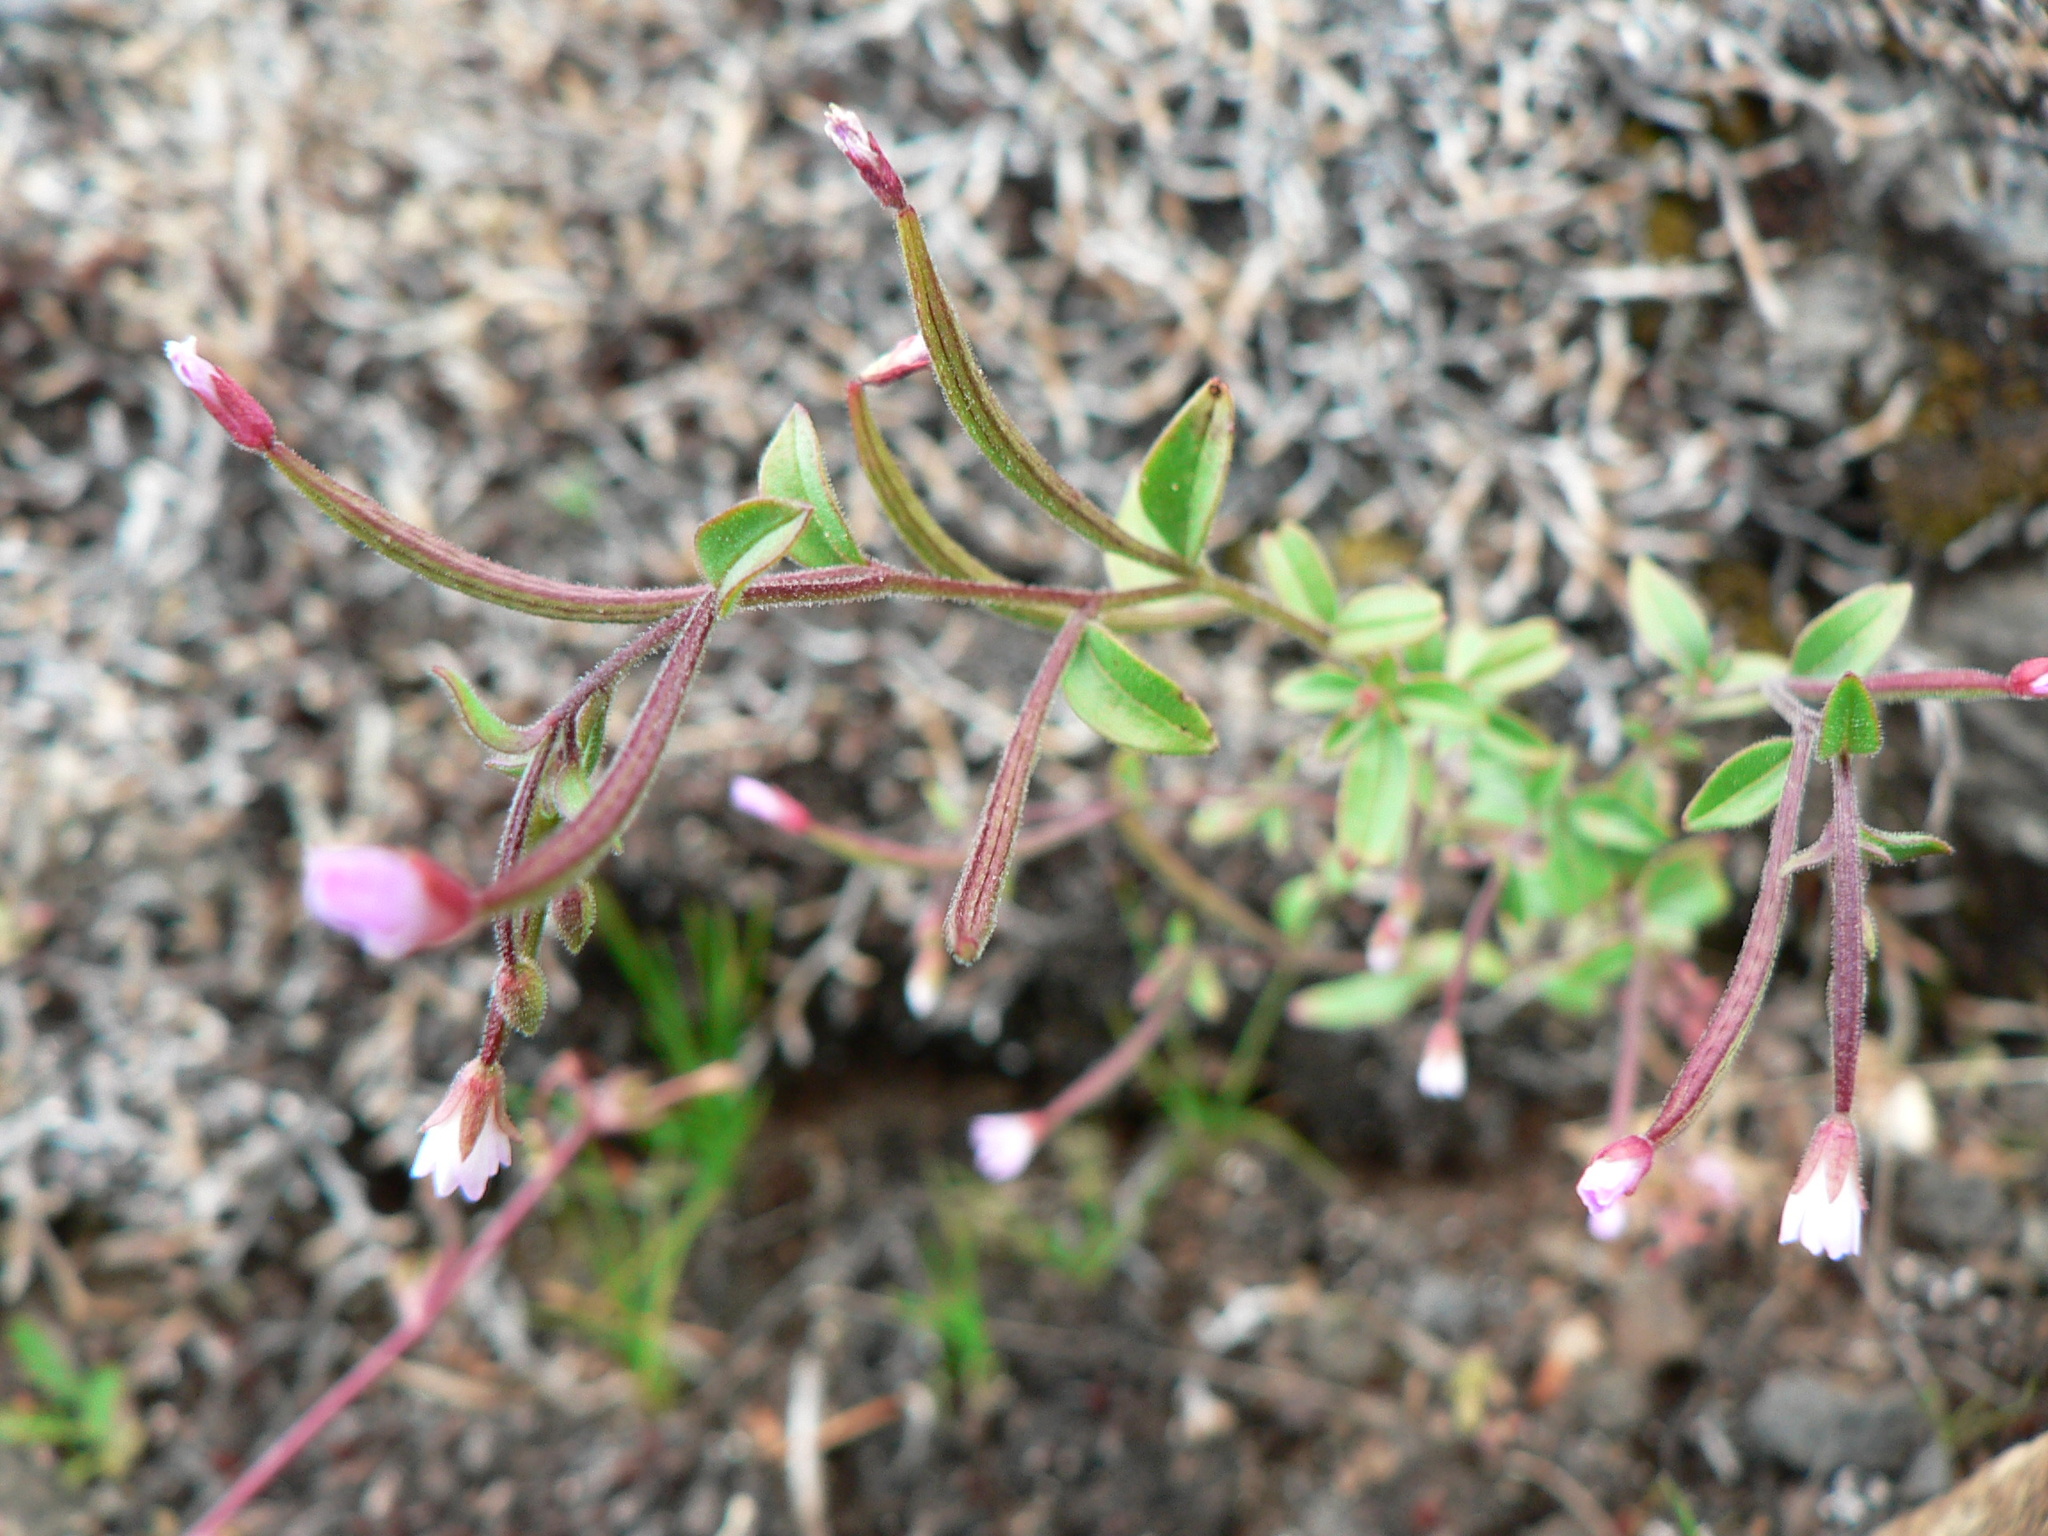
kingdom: Plantae
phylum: Tracheophyta
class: Magnoliopsida
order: Myrtales
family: Onagraceae
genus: Epilobium
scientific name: Epilobium minutum
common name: Chaparral willowherb
